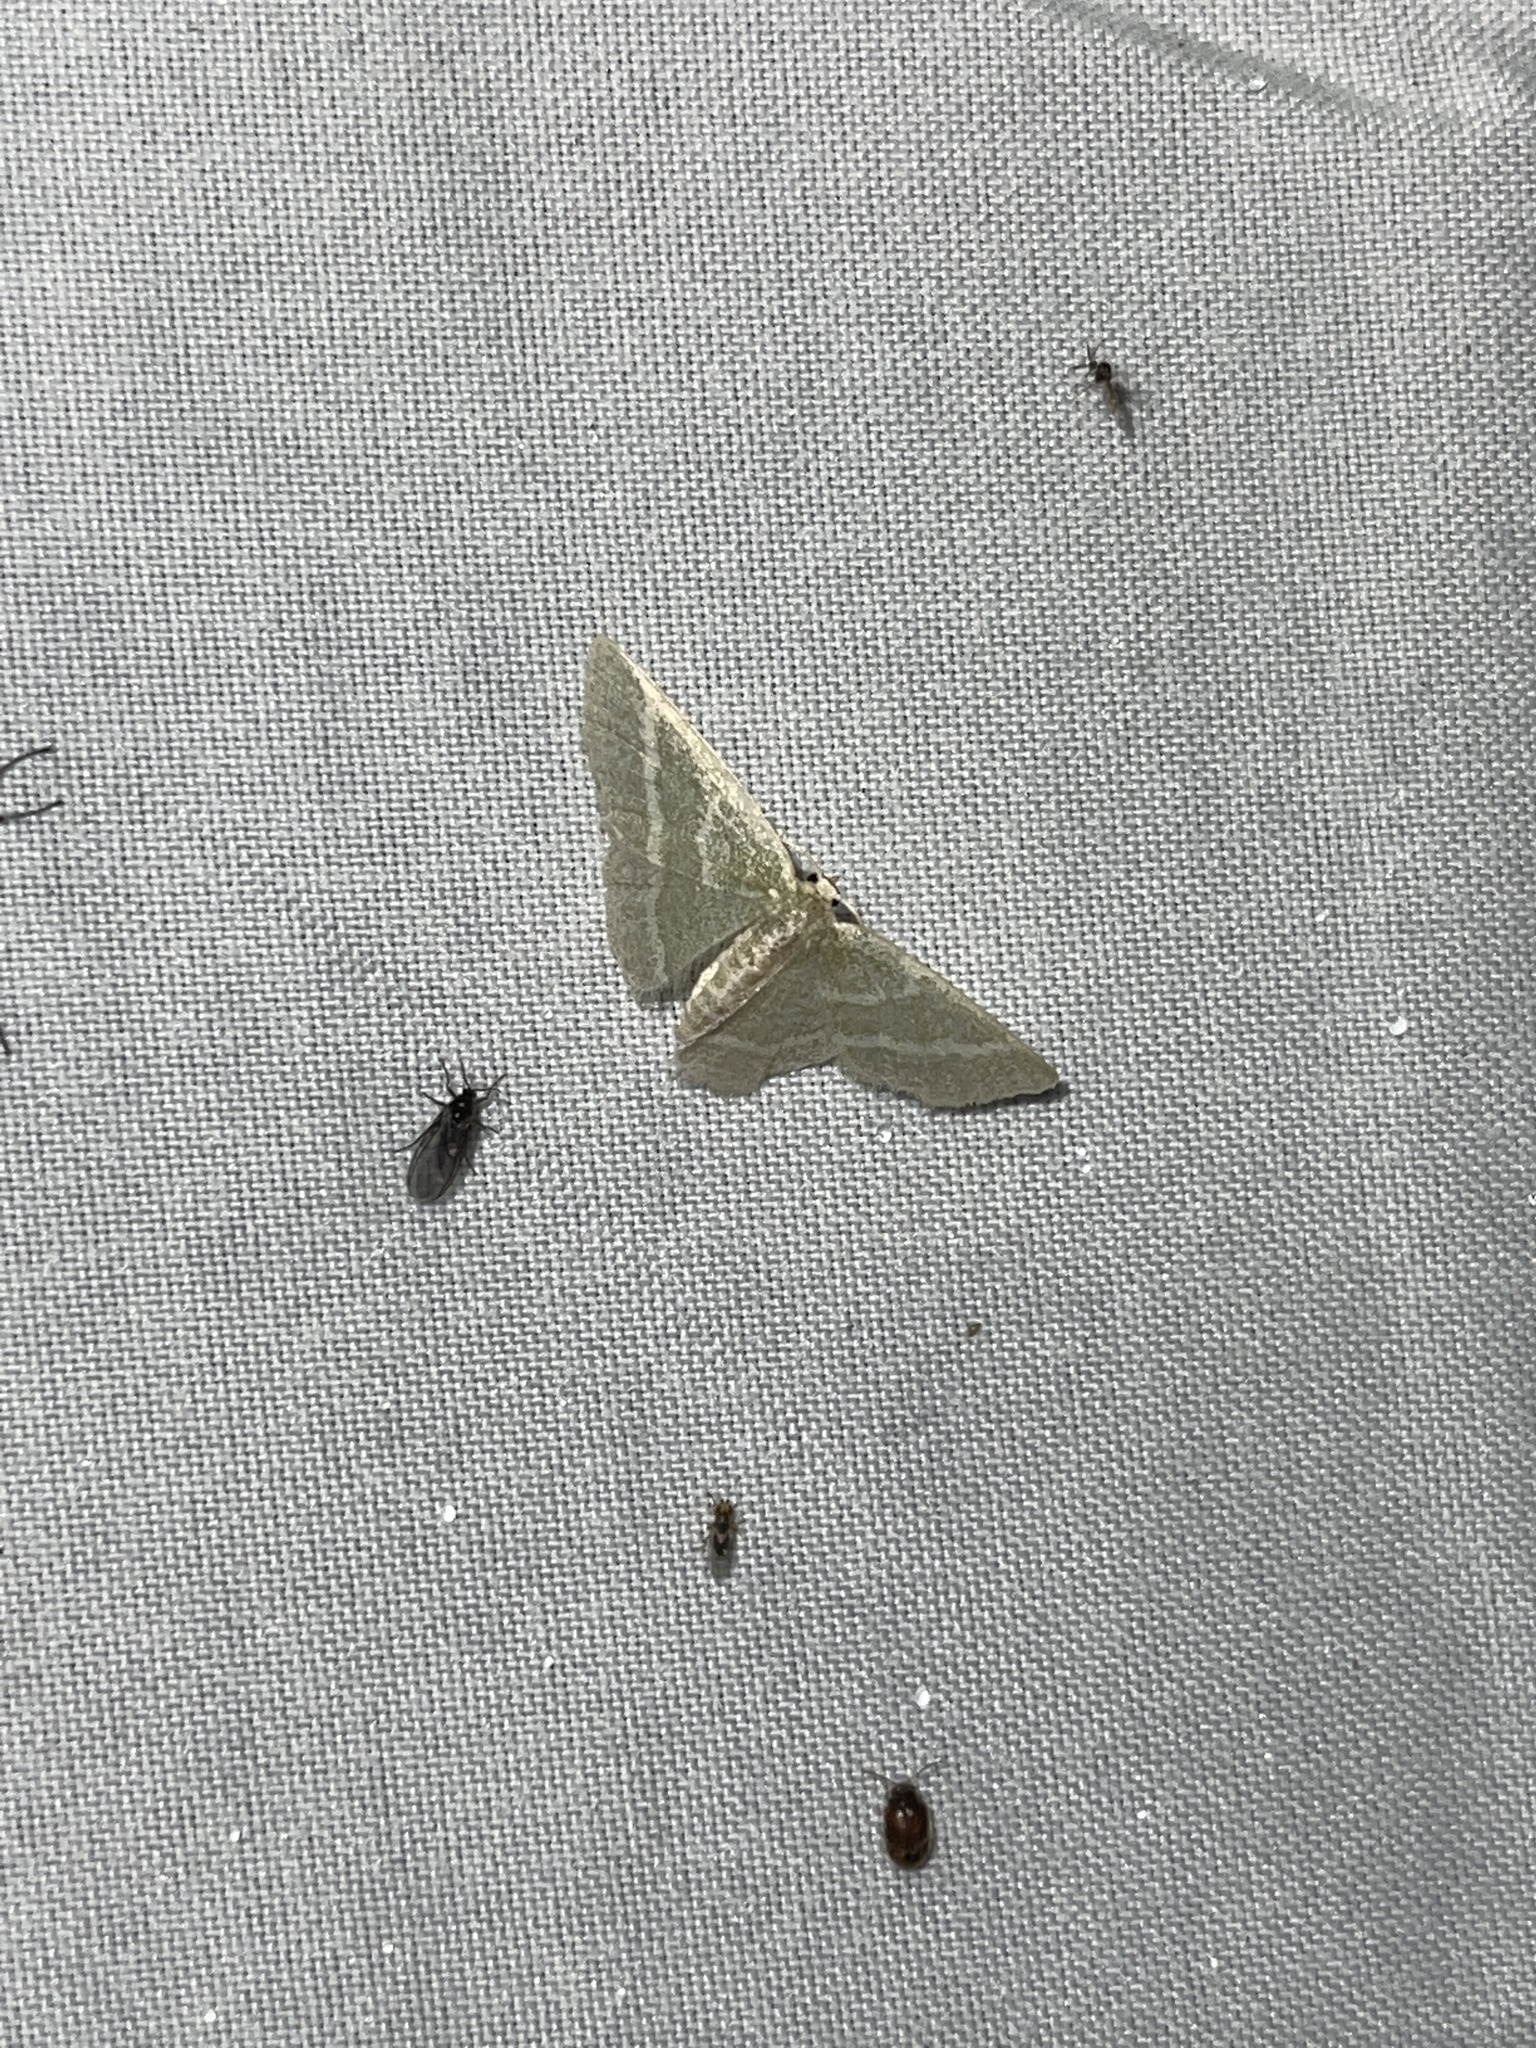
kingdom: Animalia
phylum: Arthropoda
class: Insecta
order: Lepidoptera
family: Geometridae
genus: Chlorochlamys
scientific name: Chlorochlamys chloroleucaria
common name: Blackberry looper
